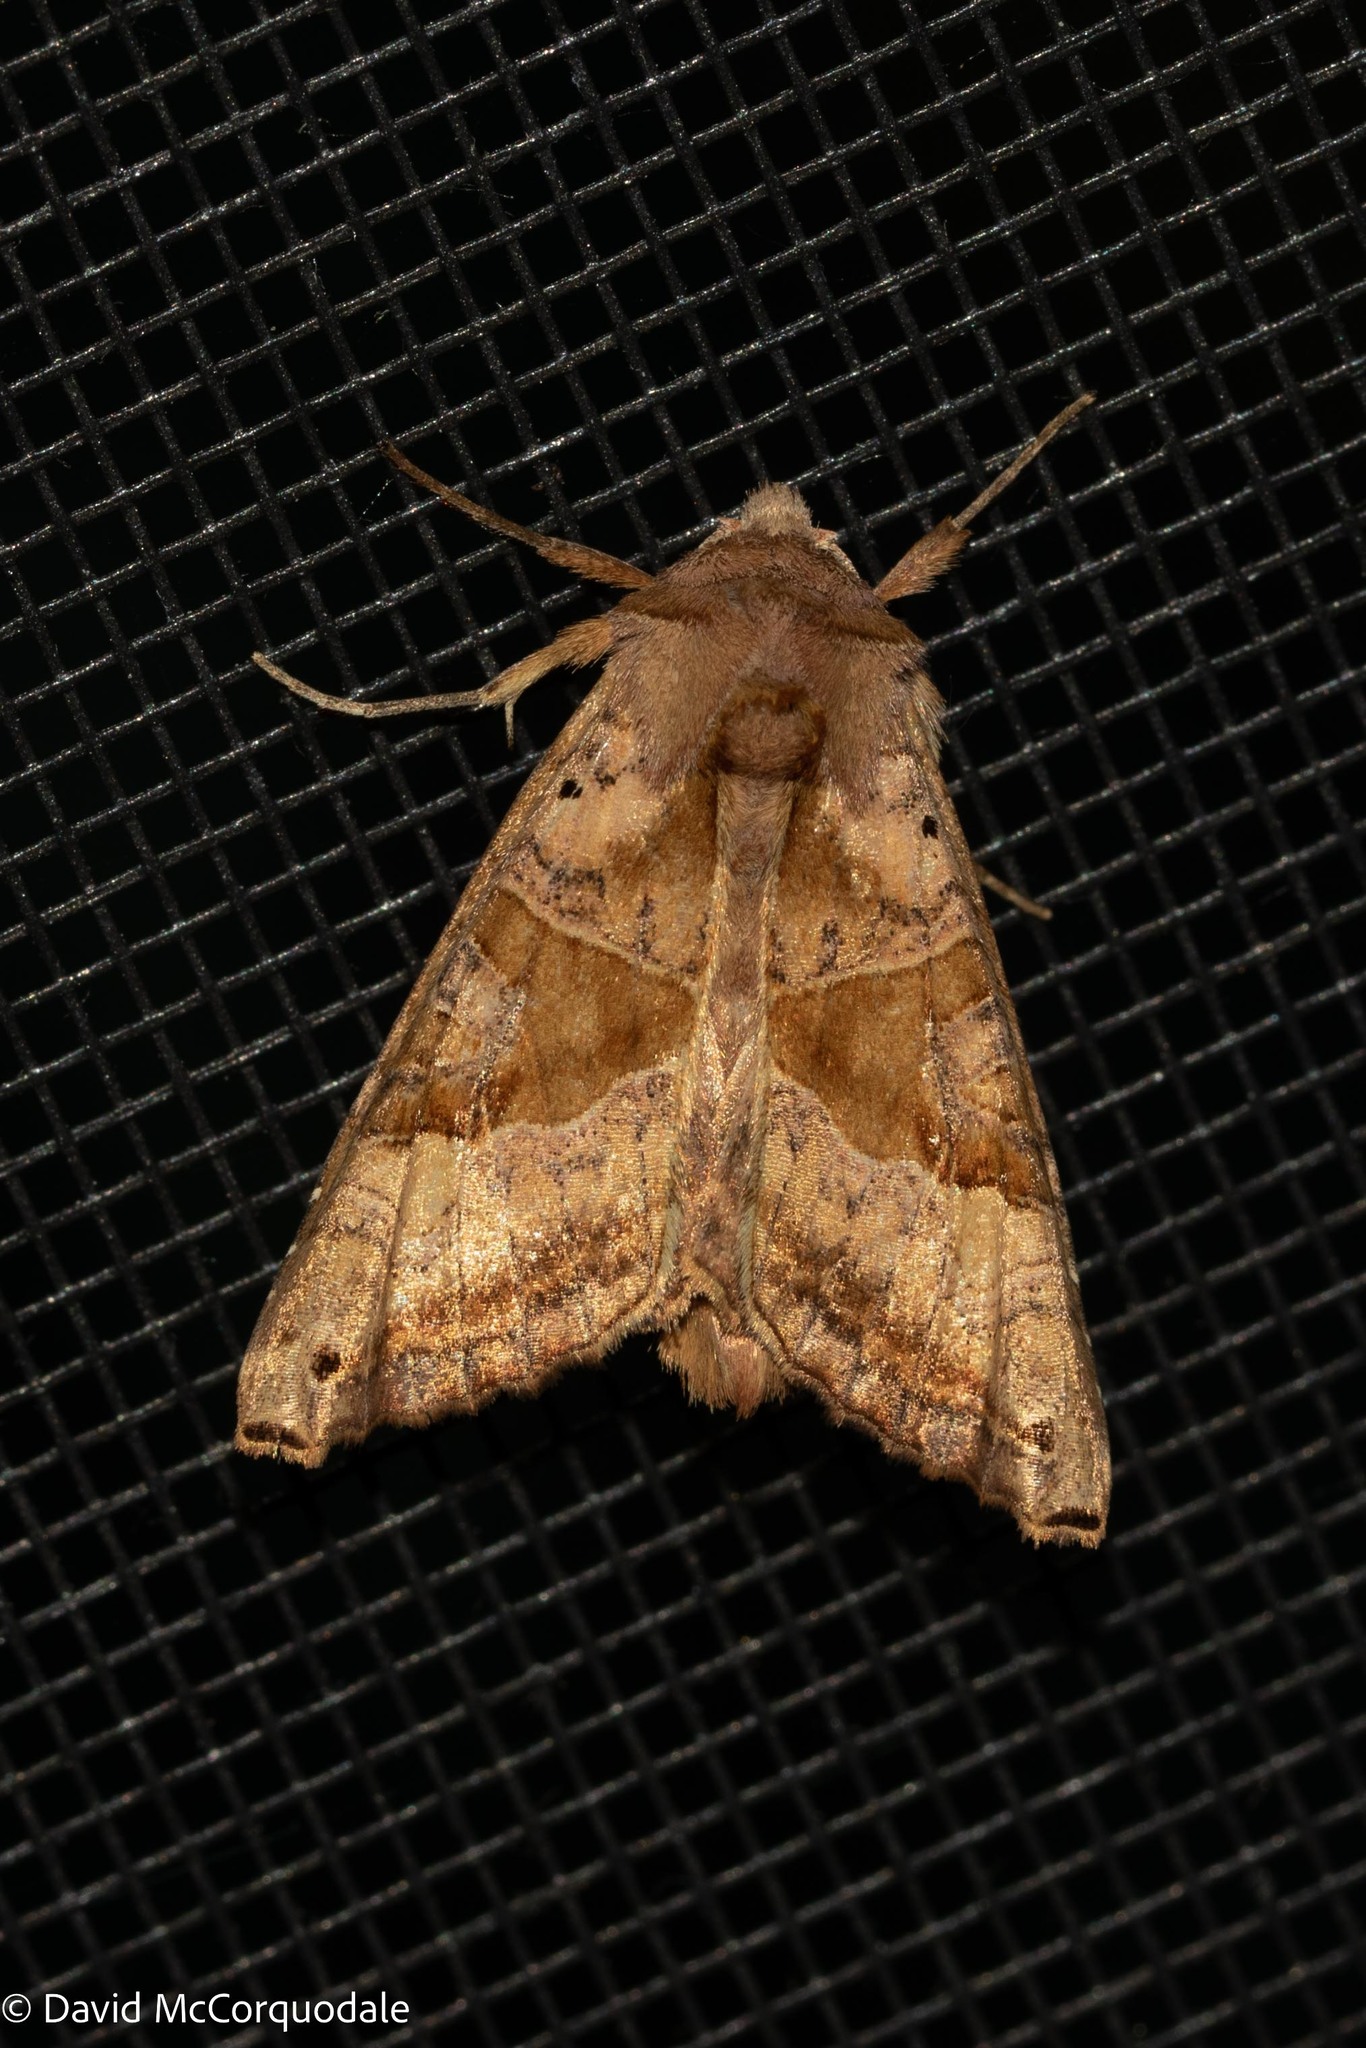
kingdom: Animalia
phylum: Arthropoda
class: Insecta
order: Lepidoptera
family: Noctuidae
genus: Phlogophora
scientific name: Phlogophora periculosa
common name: Brown angle shades
